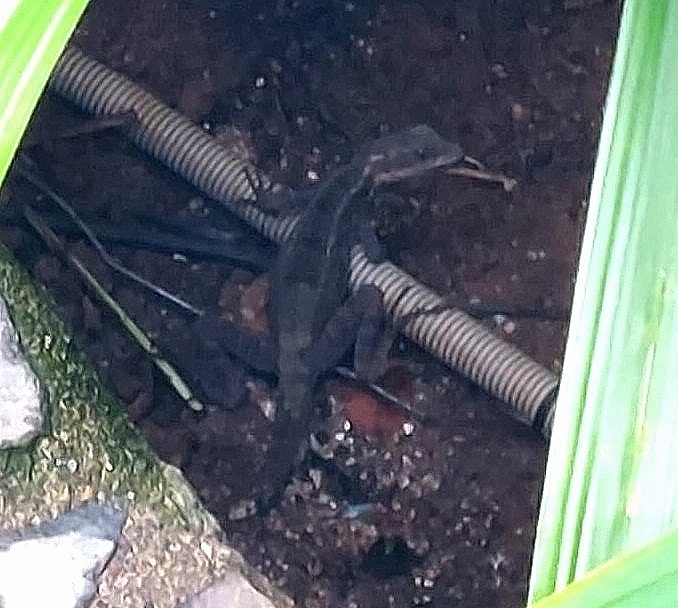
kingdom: Animalia
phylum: Chordata
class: Squamata
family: Corytophanidae
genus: Basiliscus
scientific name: Basiliscus basiliscus
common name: Common basilisk
